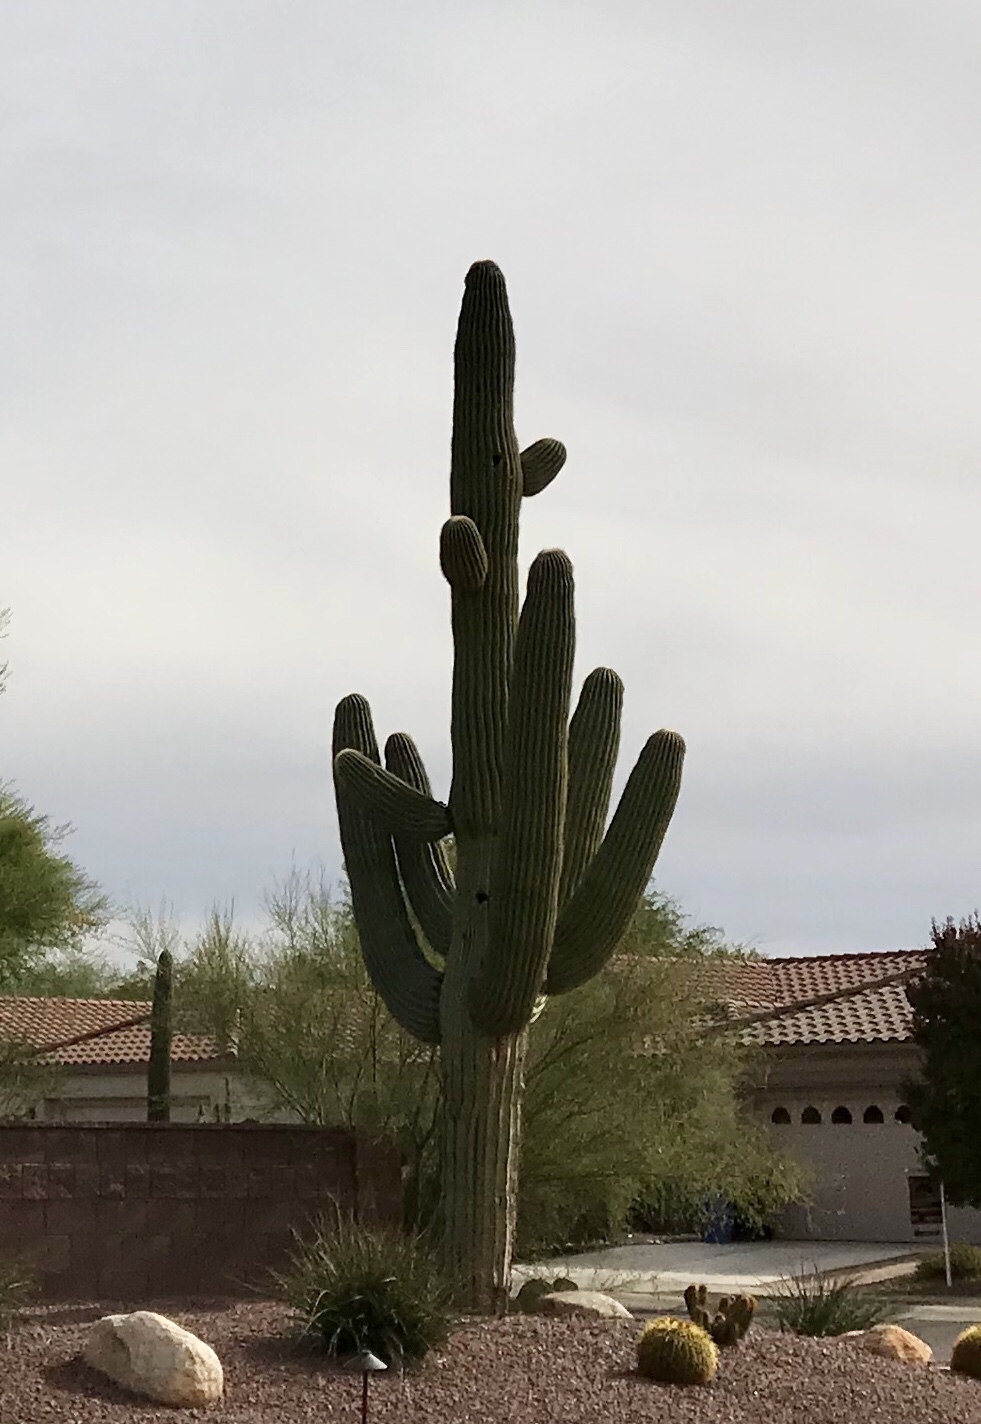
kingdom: Plantae
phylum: Tracheophyta
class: Magnoliopsida
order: Caryophyllales
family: Cactaceae
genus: Carnegiea
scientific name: Carnegiea gigantea
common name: Saguaro
